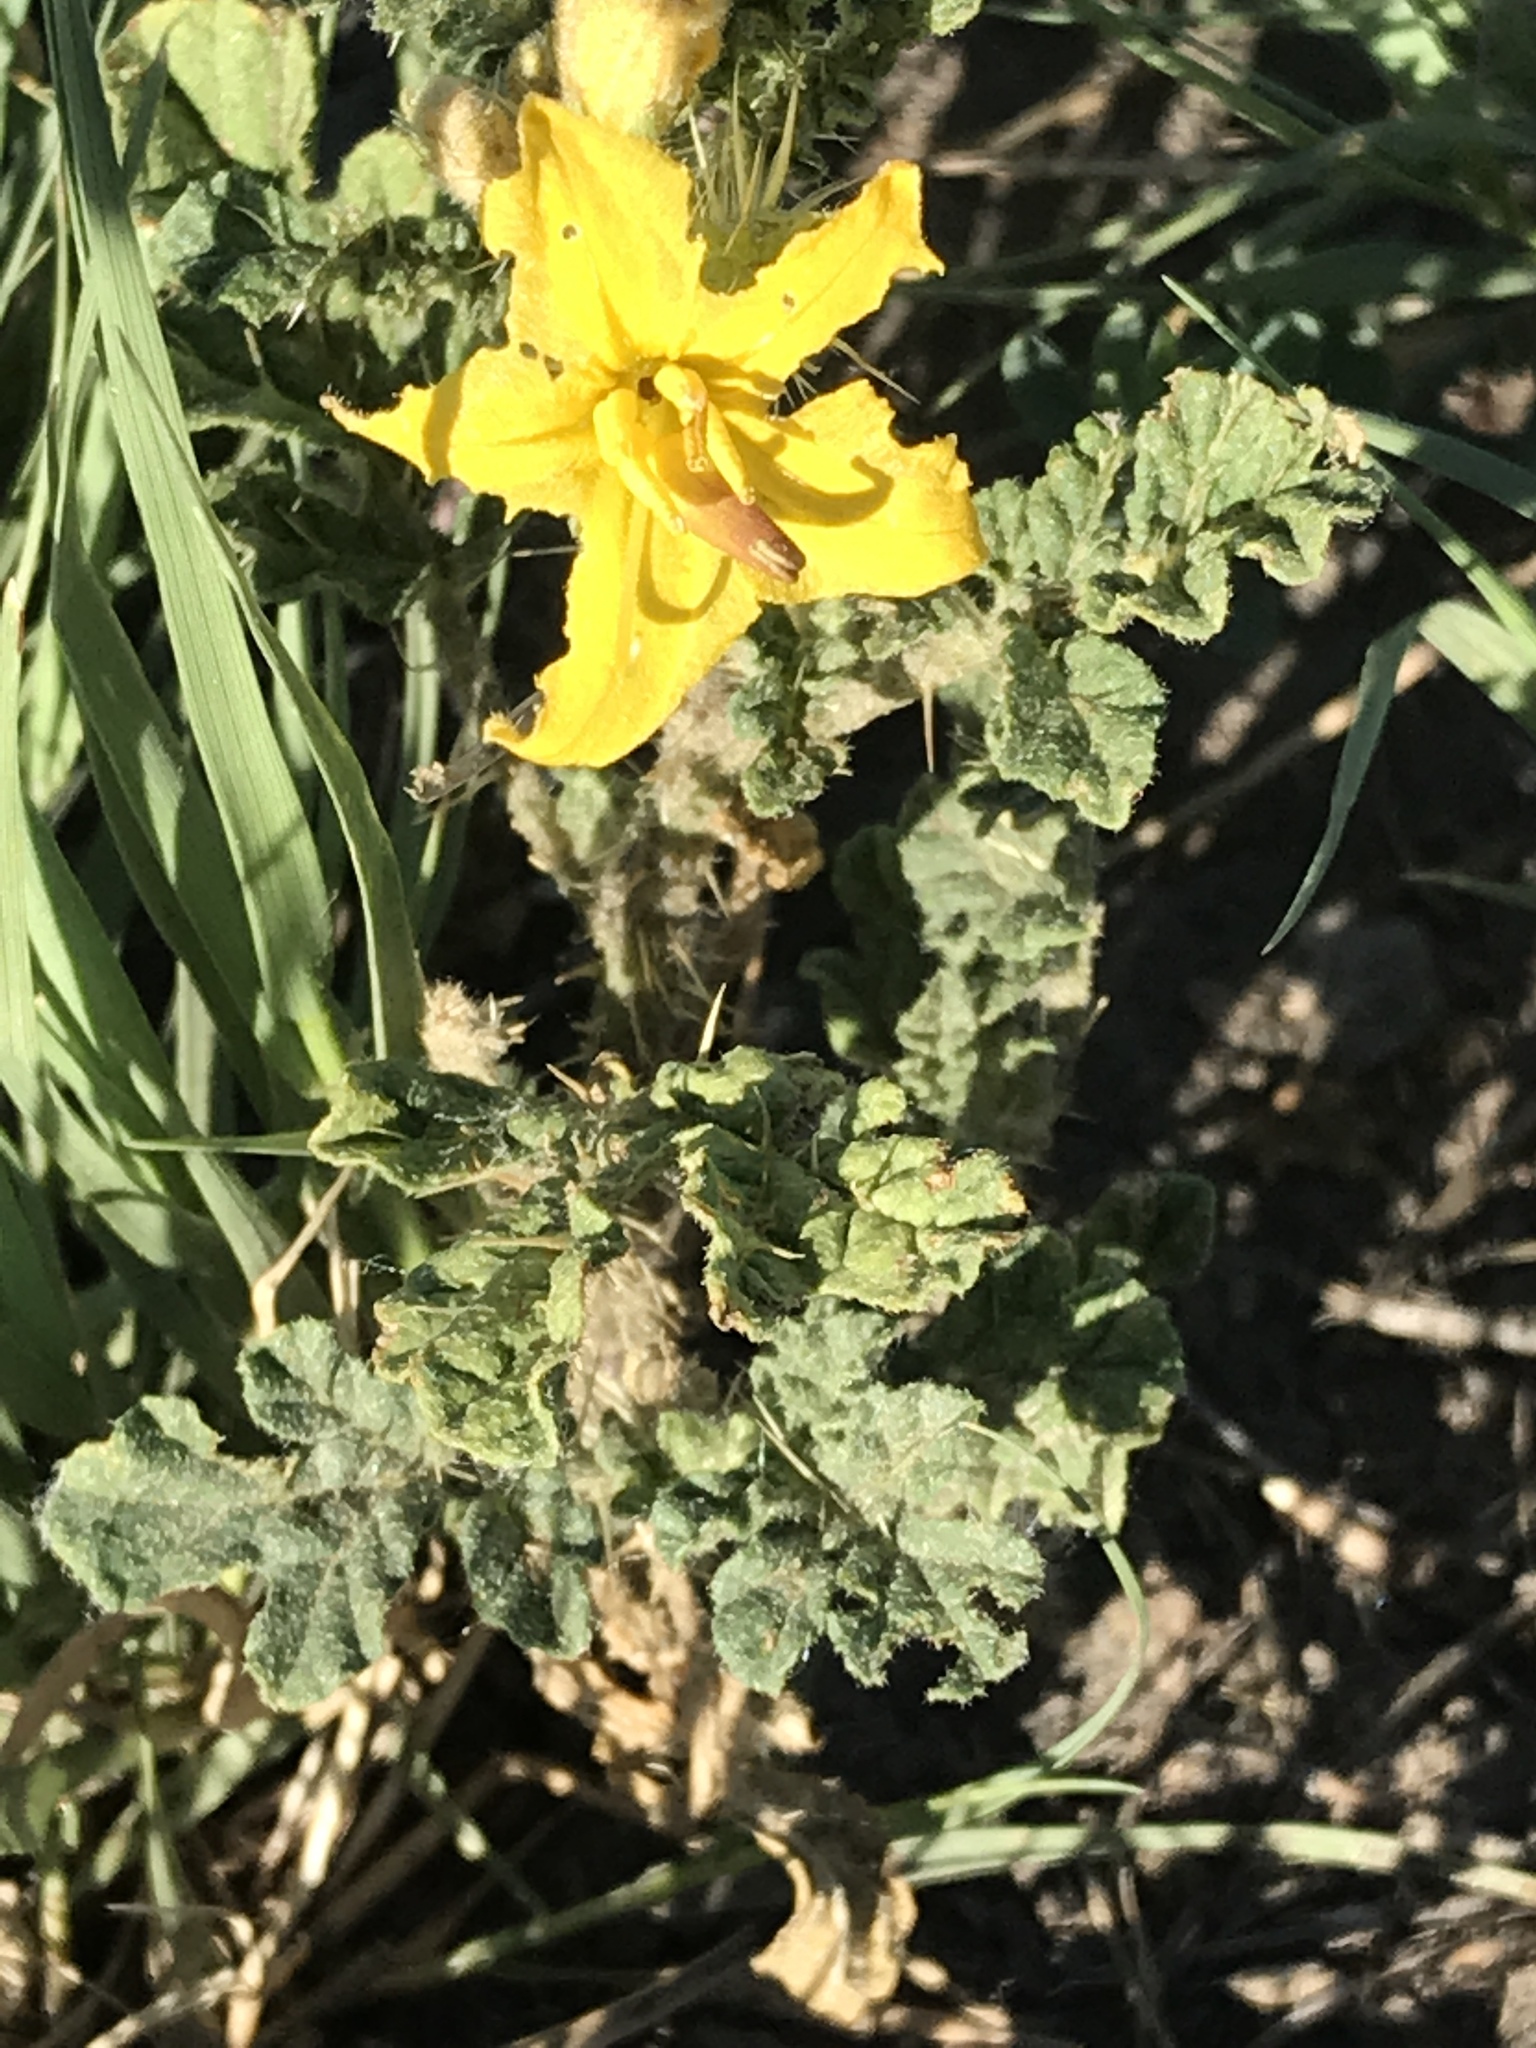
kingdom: Plantae
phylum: Tracheophyta
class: Magnoliopsida
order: Solanales
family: Solanaceae
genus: Solanum
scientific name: Solanum angustifolium
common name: Buffalobur nightshade
